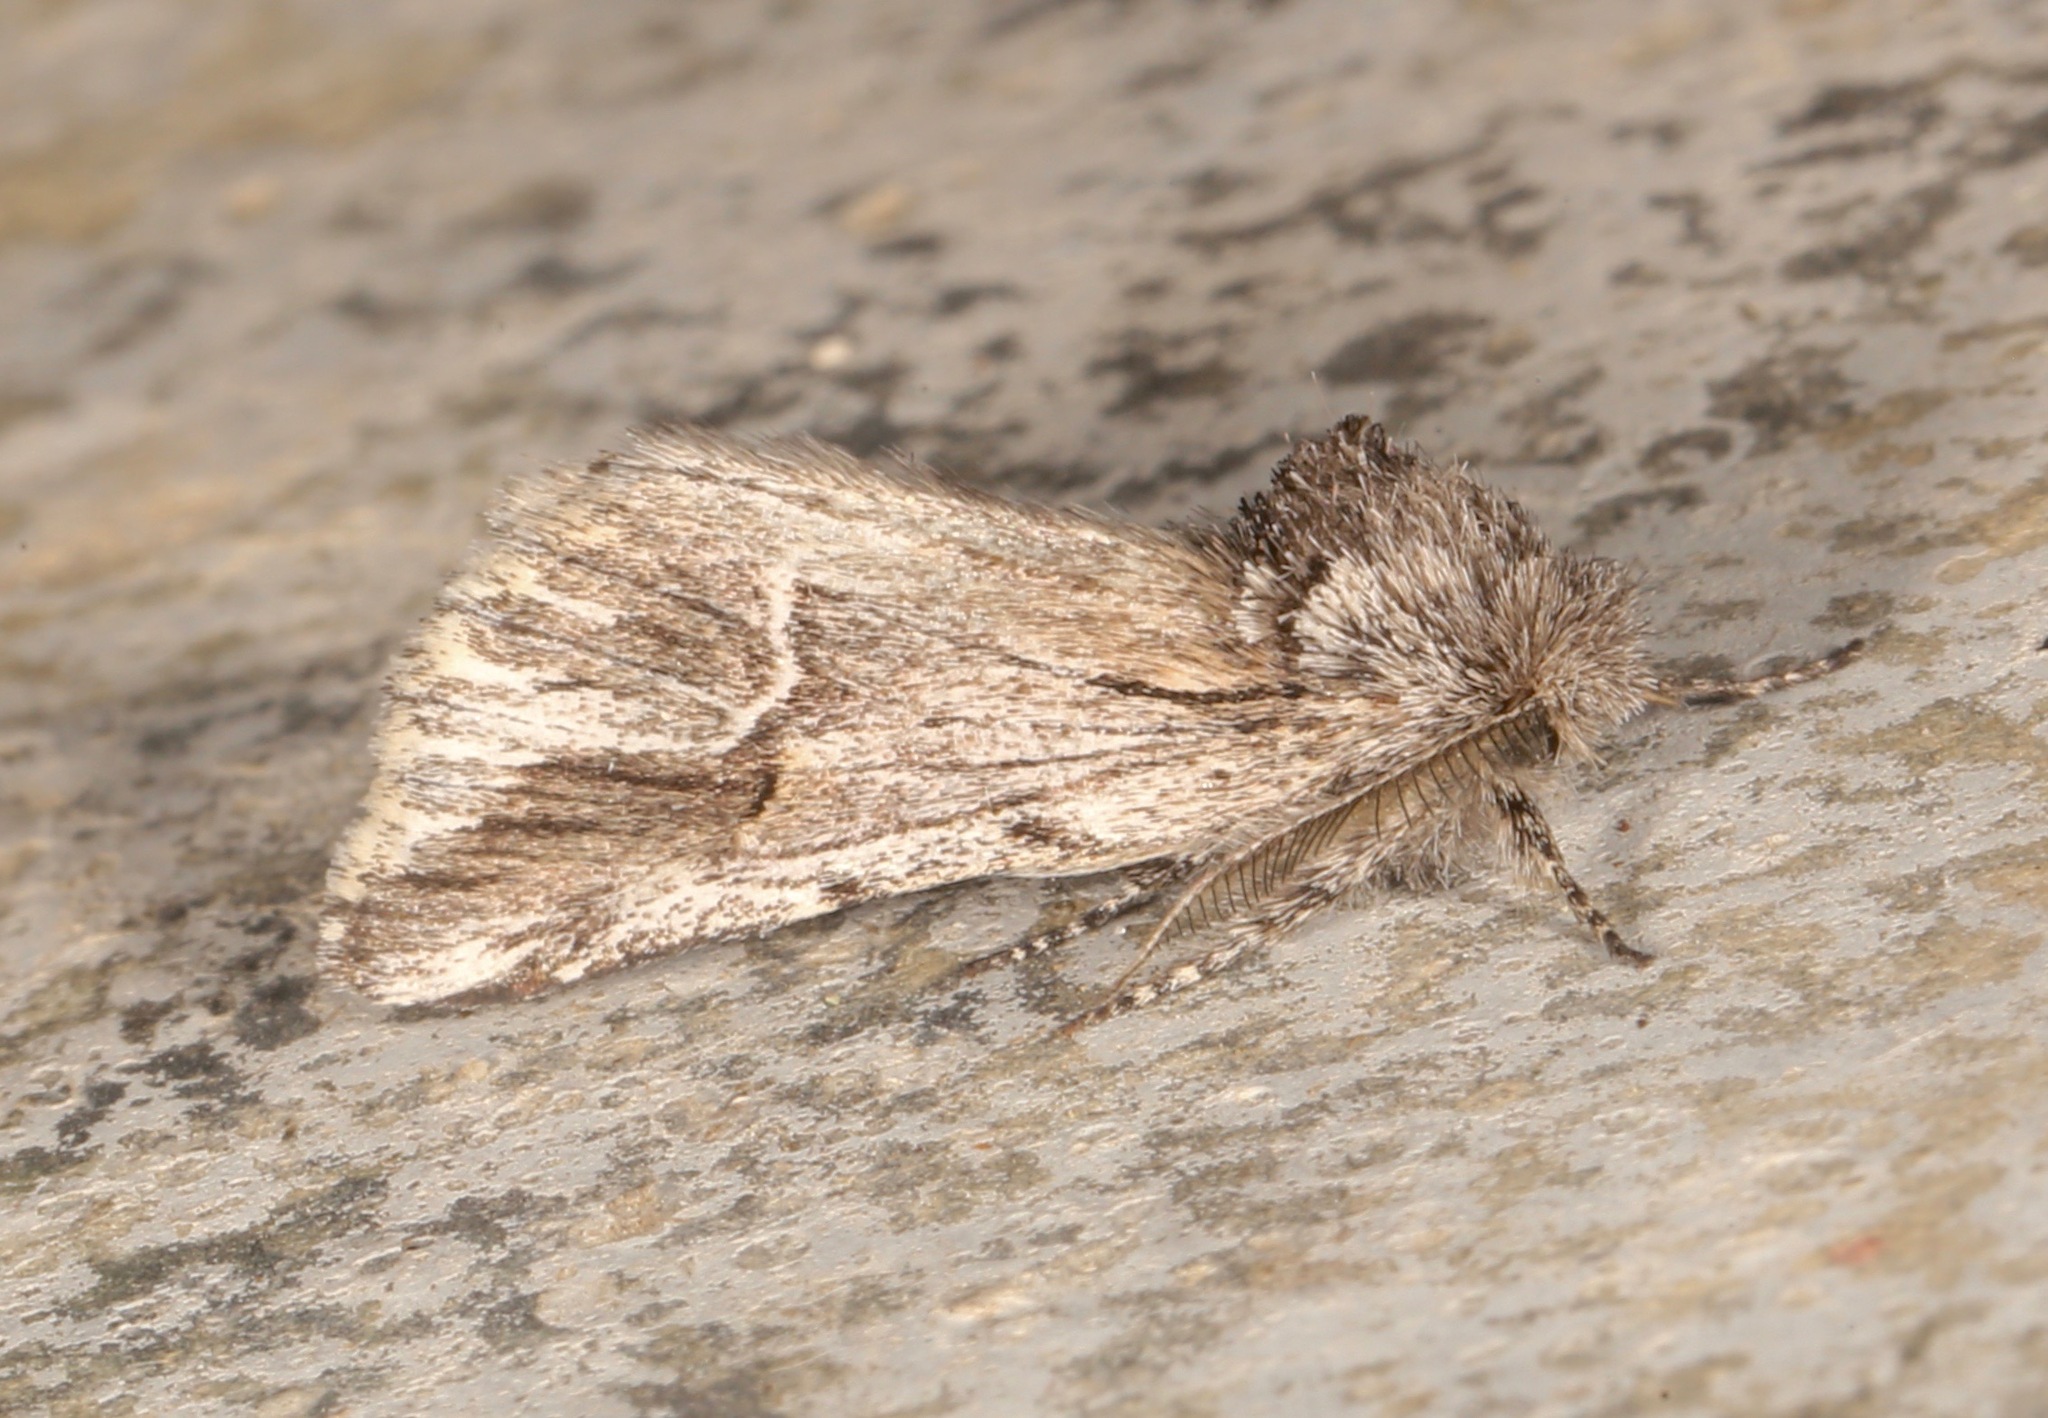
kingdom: Animalia
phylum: Arthropoda
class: Insecta
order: Lepidoptera
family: Notodontidae
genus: Ursia
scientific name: Ursia noctuiformis
